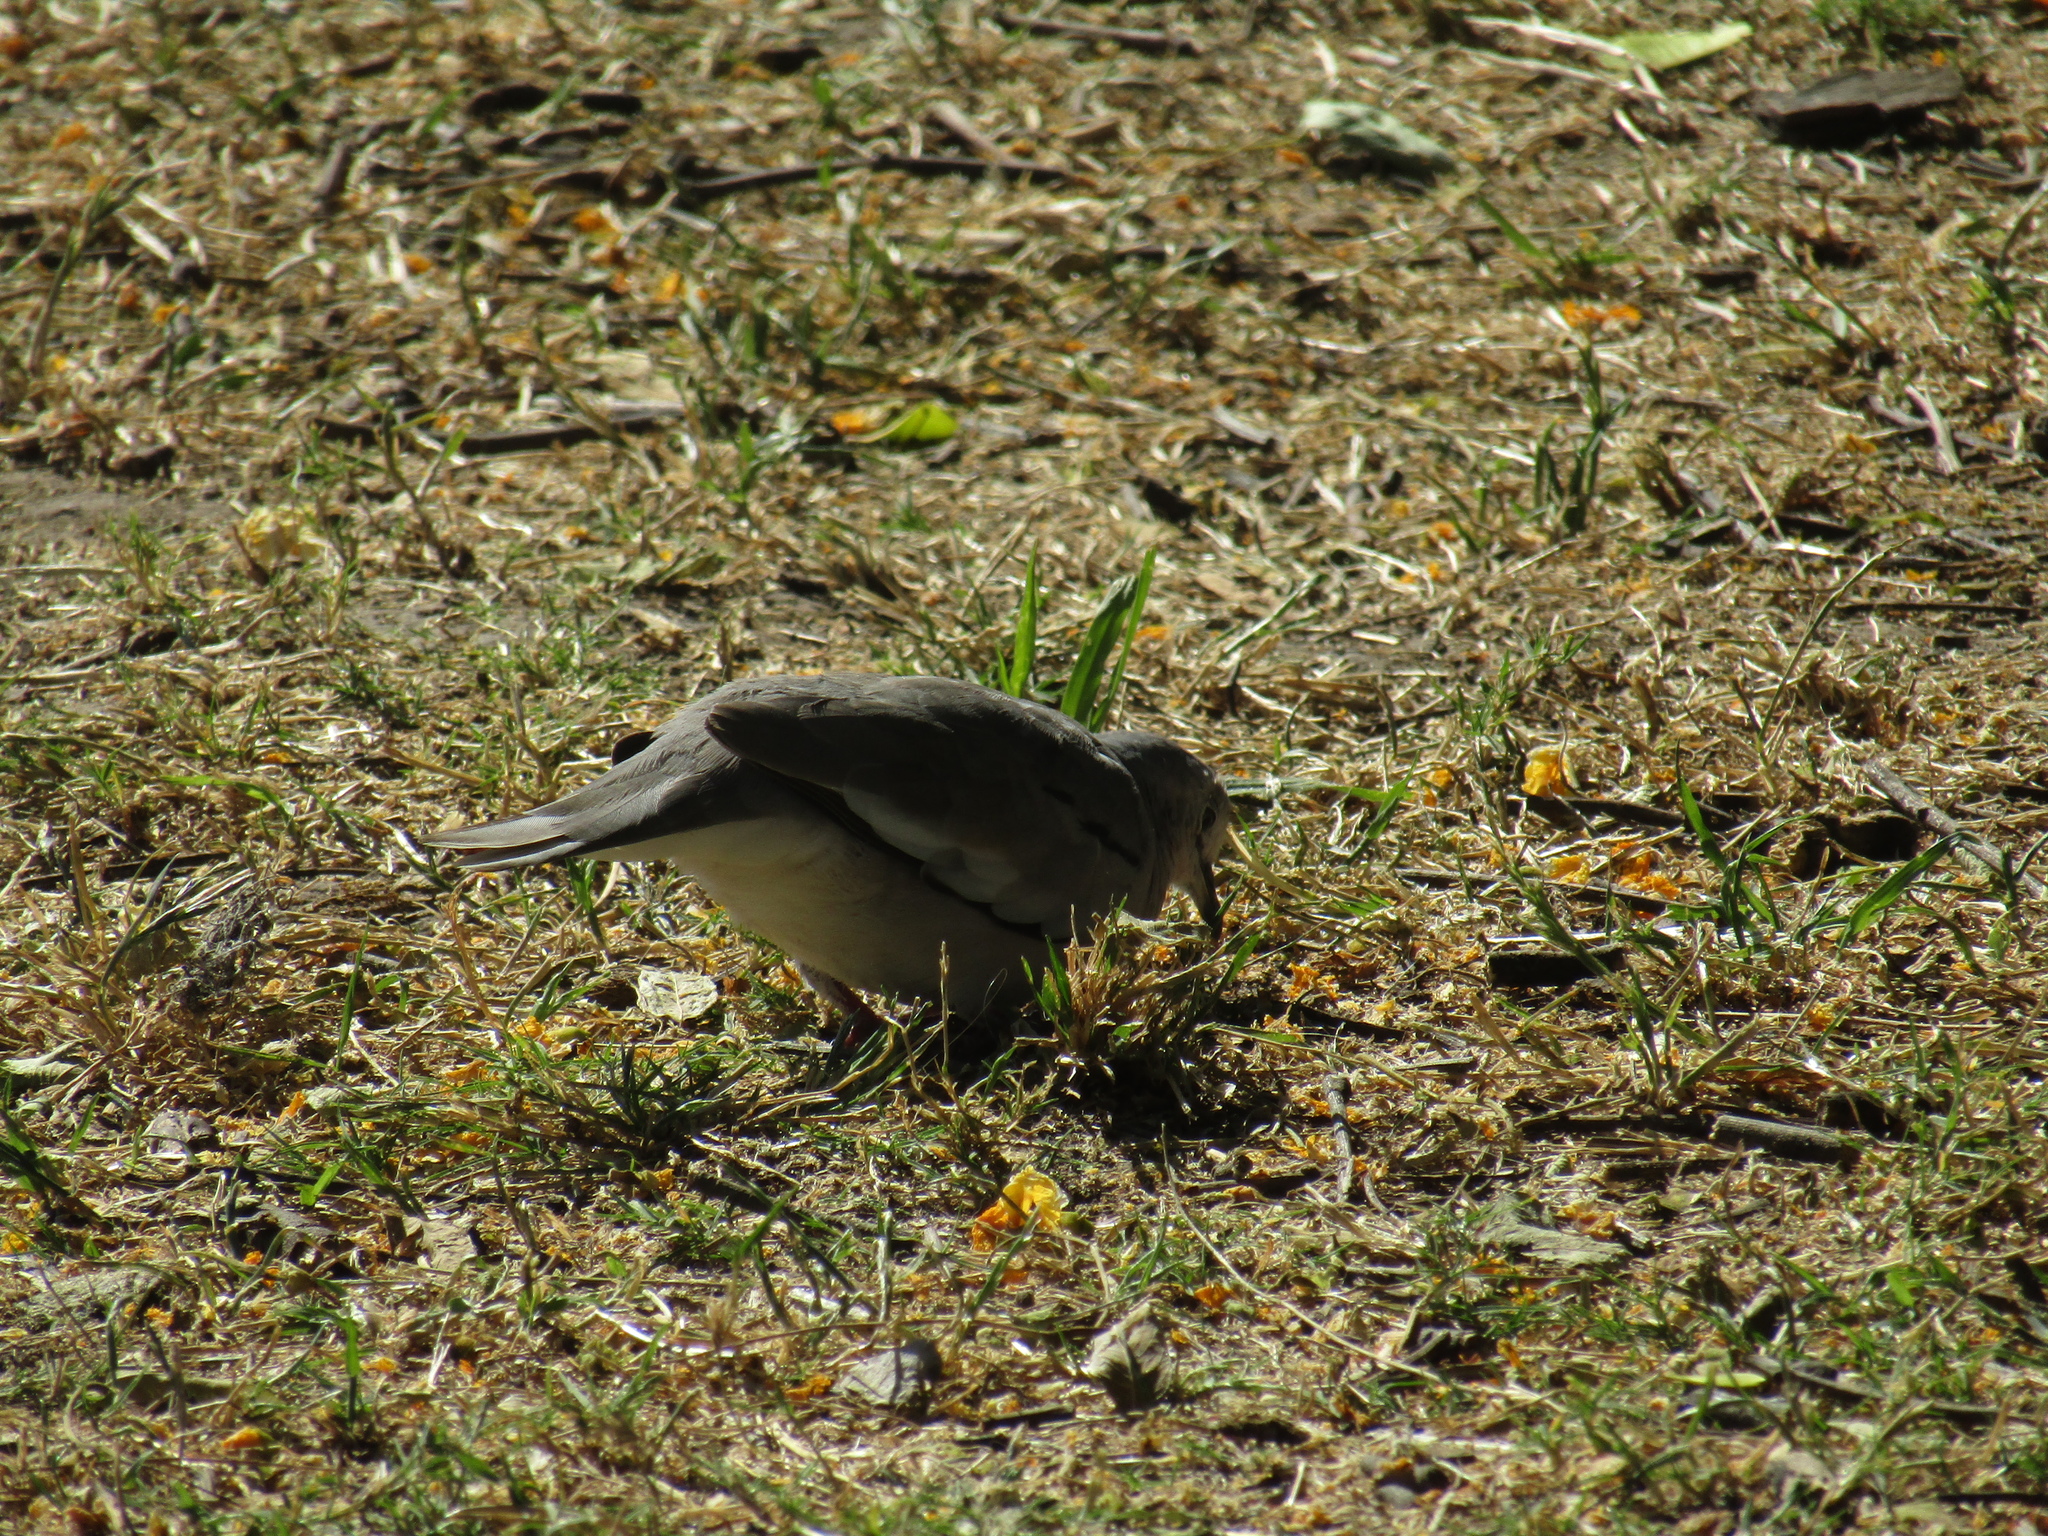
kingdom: Animalia
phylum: Chordata
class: Aves
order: Columbiformes
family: Columbidae
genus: Columbina
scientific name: Columbina picui
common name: Picui ground dove
